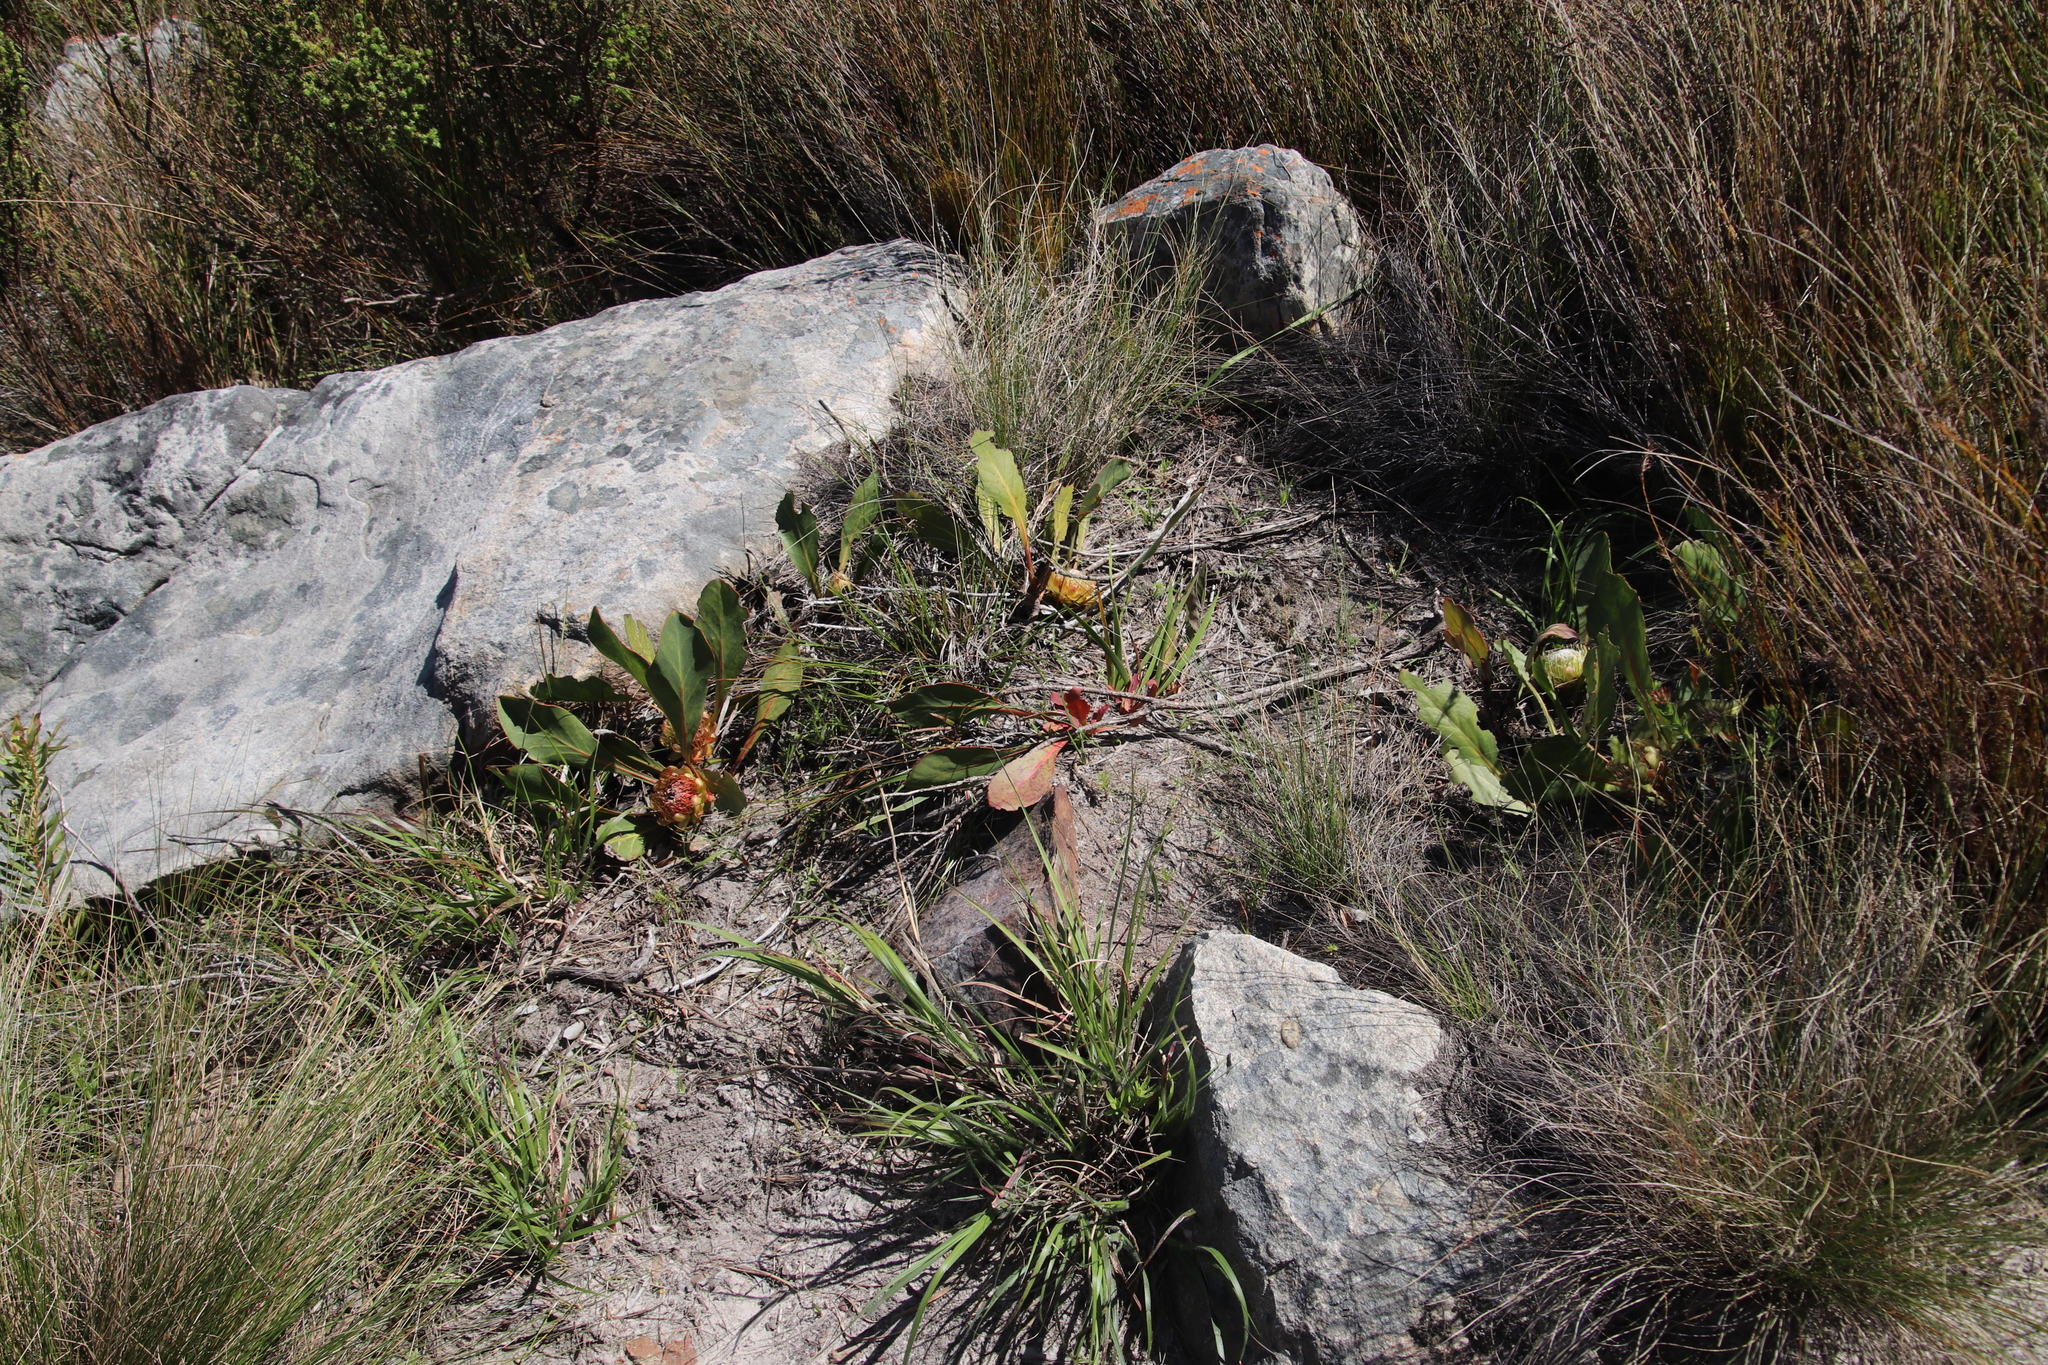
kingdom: Plantae
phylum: Tracheophyta
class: Magnoliopsida
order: Proteales
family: Proteaceae
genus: Protea
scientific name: Protea acaulos
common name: Common ground sugarbush
